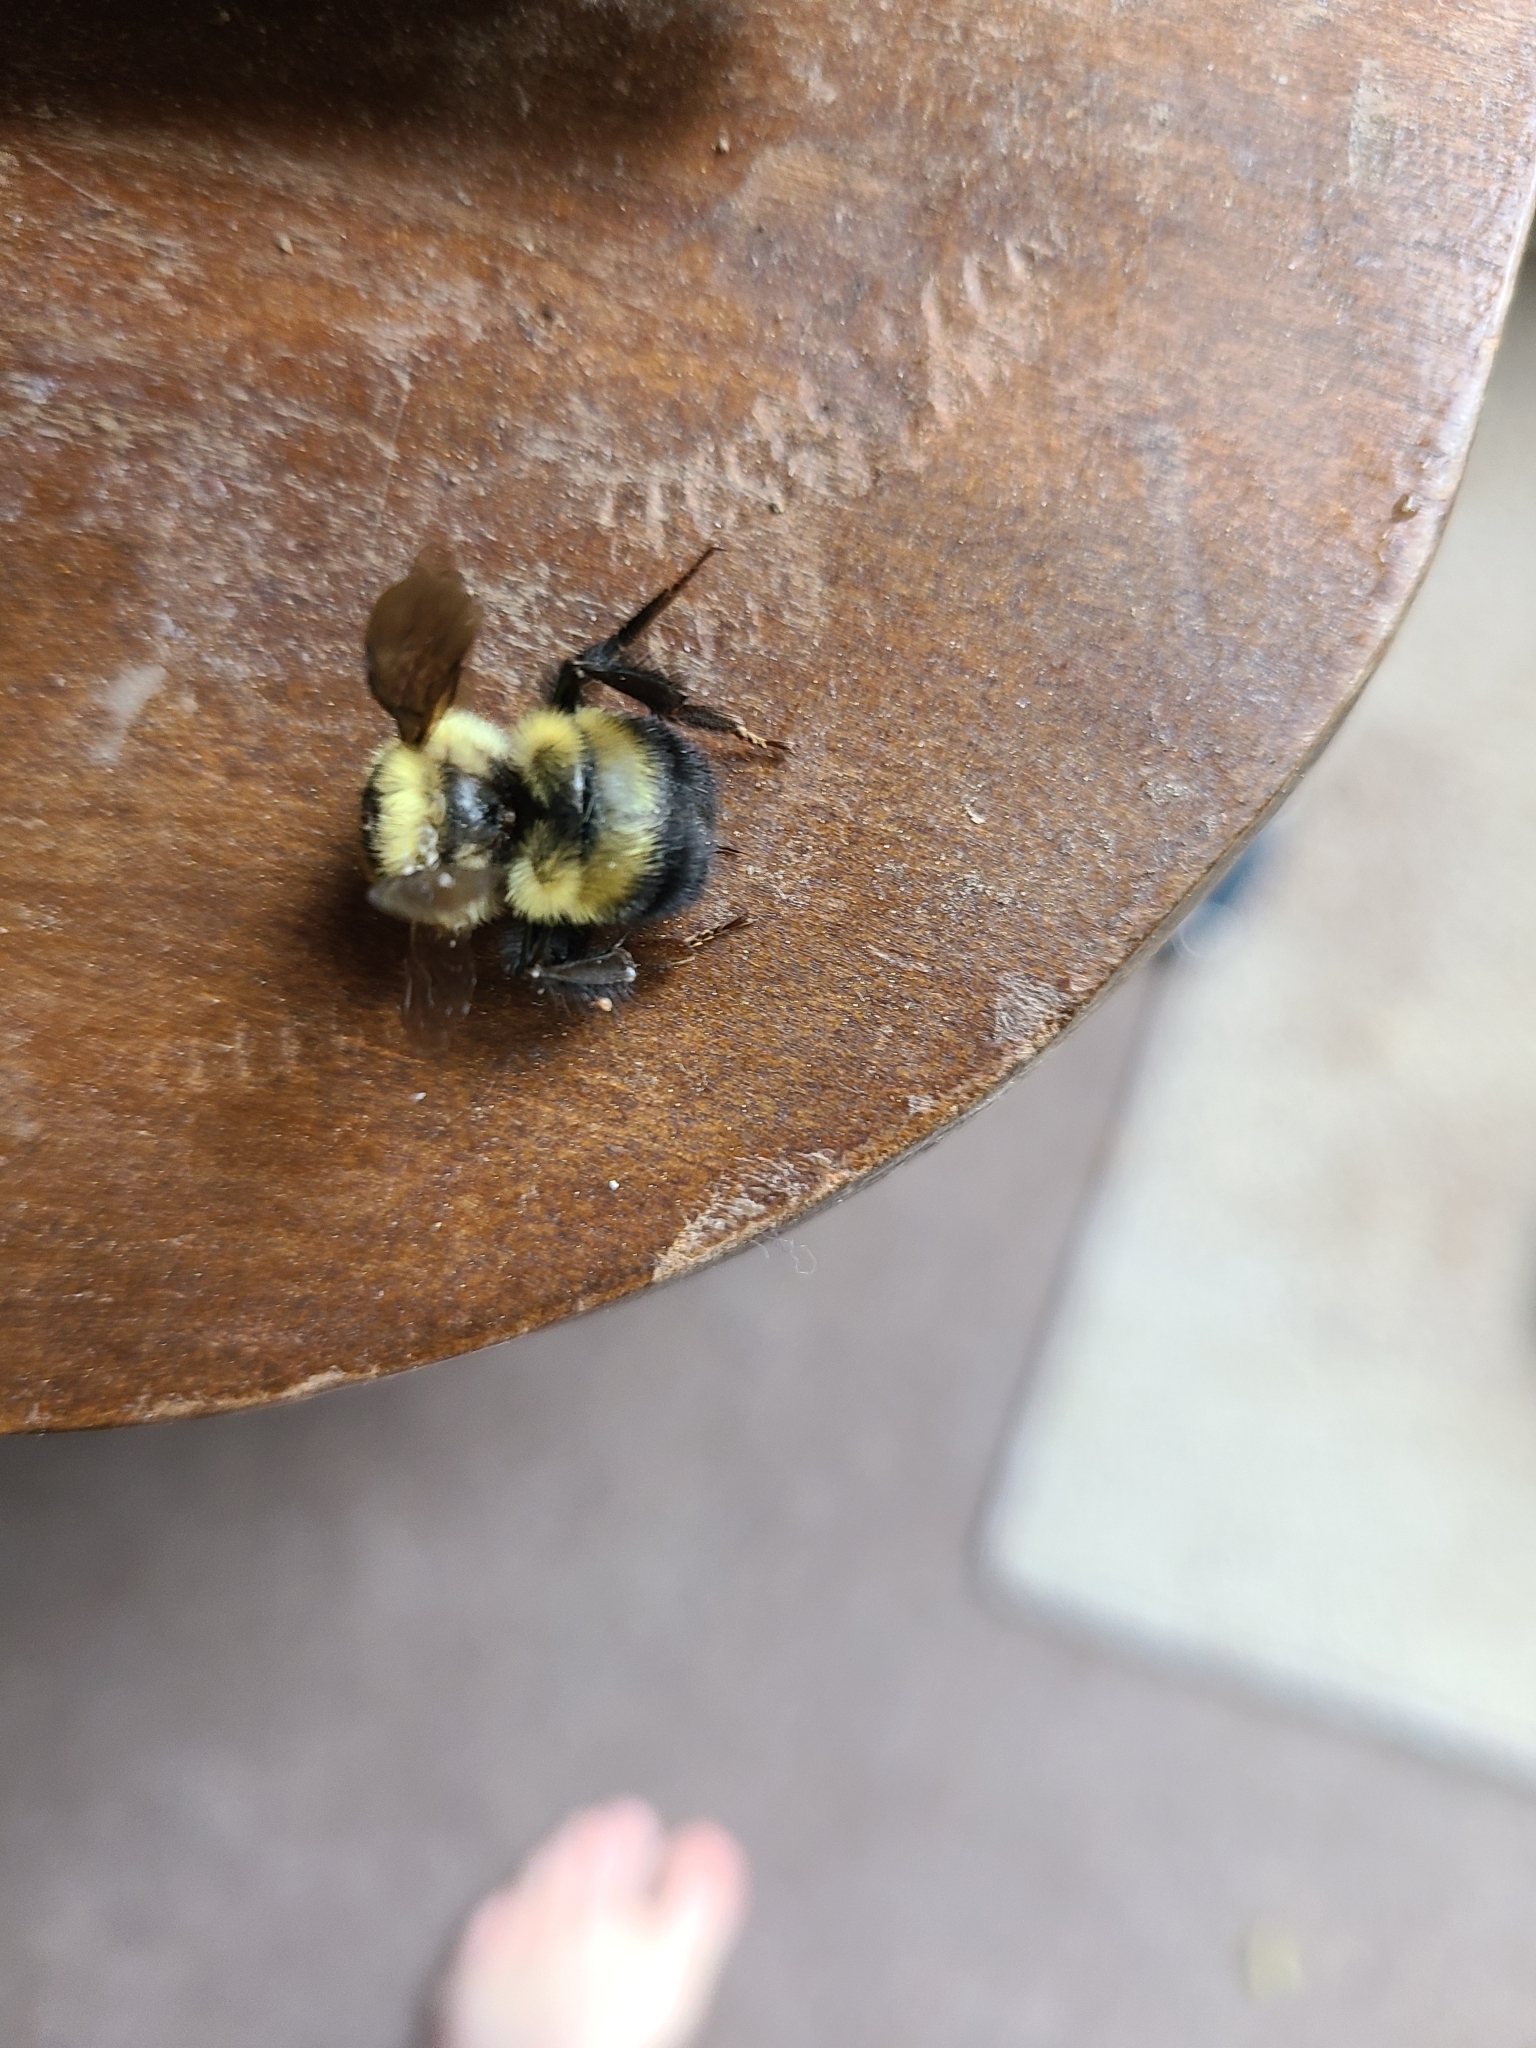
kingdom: Animalia
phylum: Arthropoda
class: Insecta
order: Hymenoptera
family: Apidae
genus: Bombus
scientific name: Bombus rufocinctus
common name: Red-belted bumble bee
